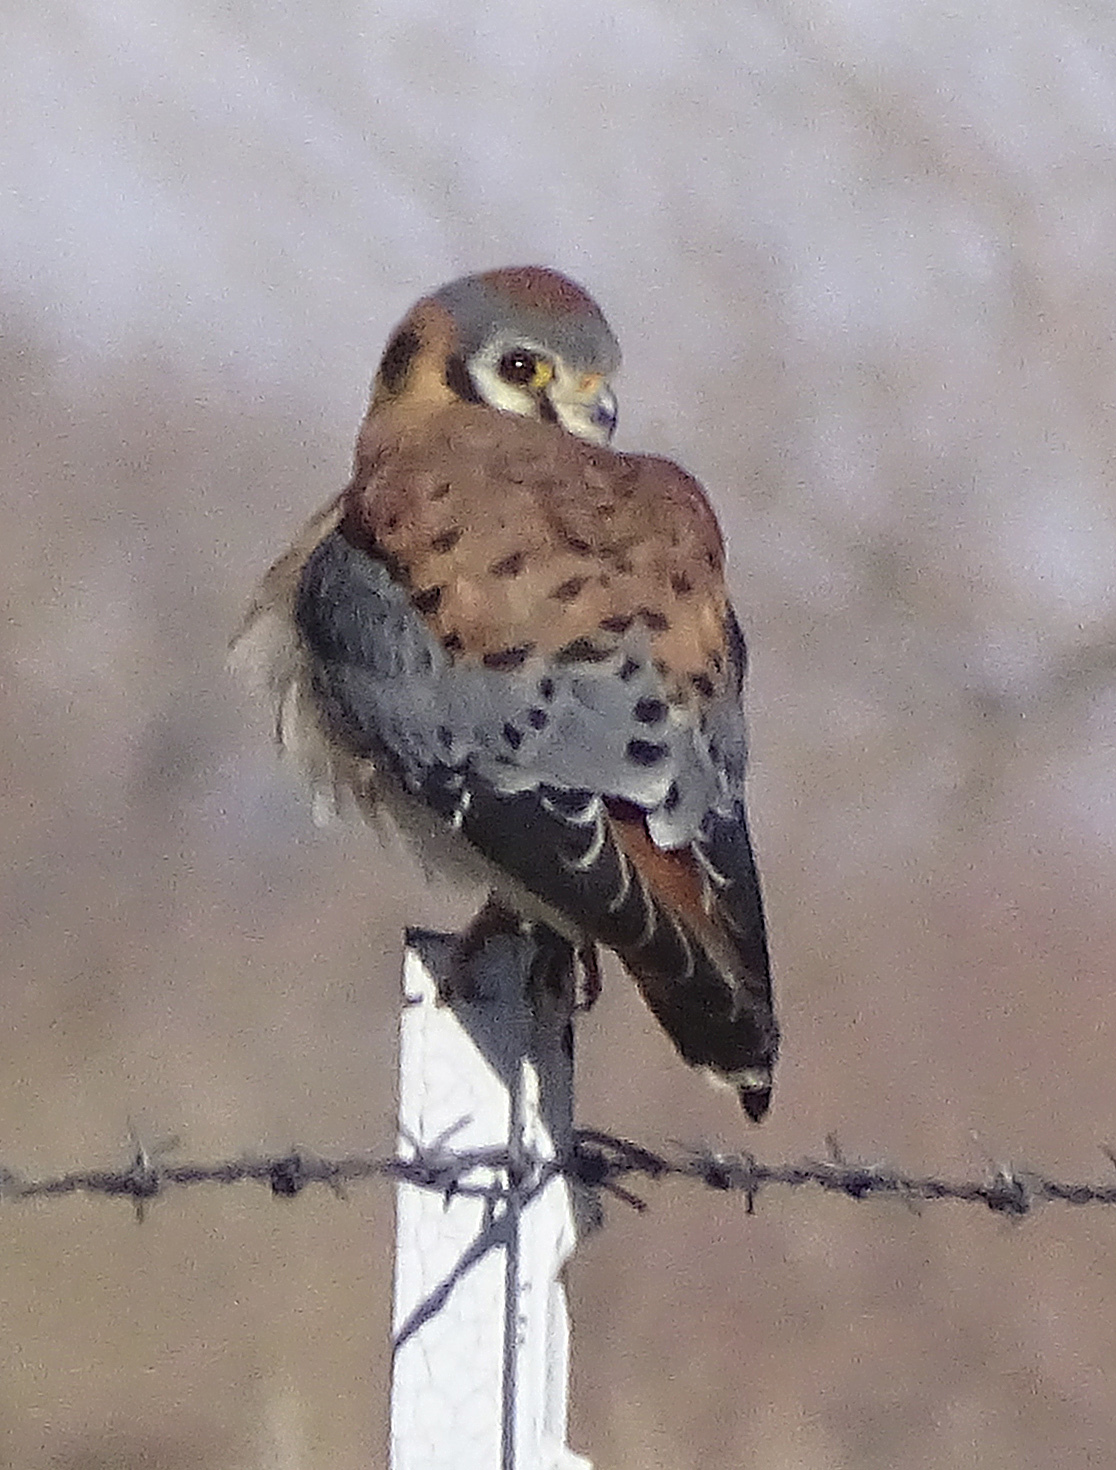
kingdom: Animalia
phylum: Chordata
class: Aves
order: Falconiformes
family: Falconidae
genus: Falco
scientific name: Falco sparverius
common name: American kestrel
